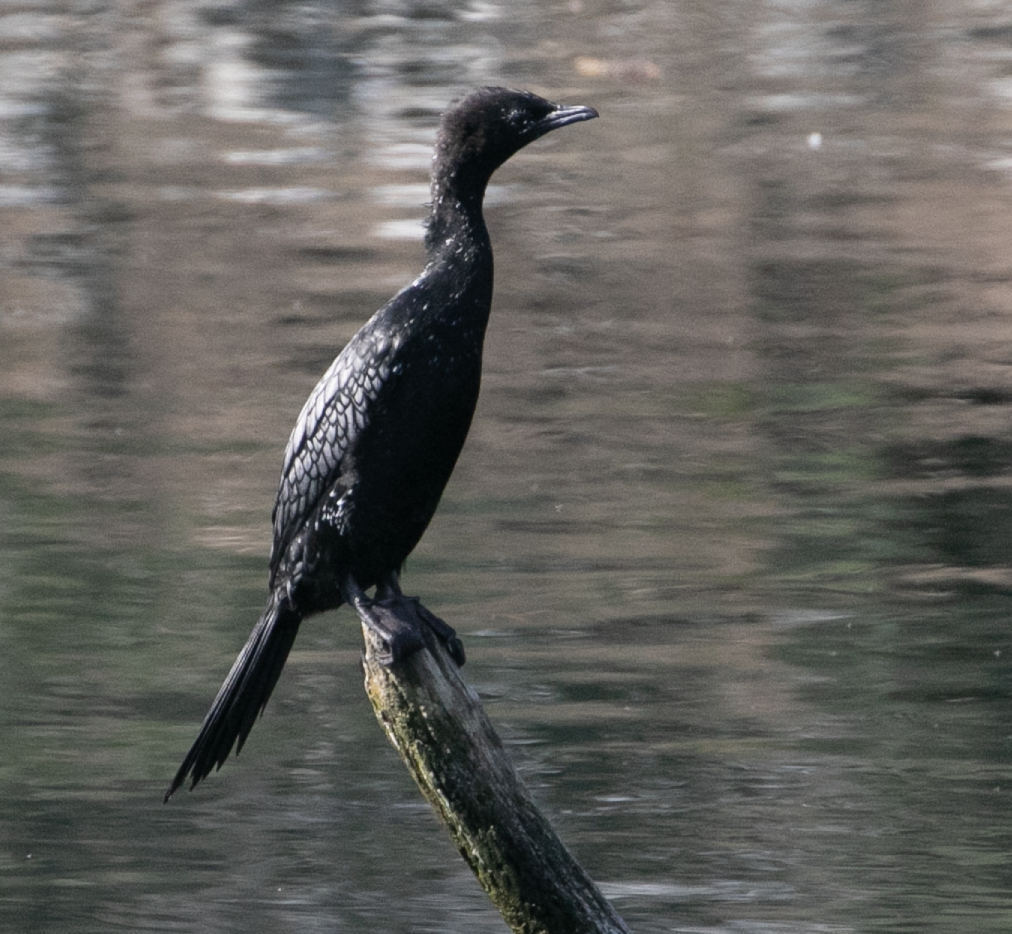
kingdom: Animalia
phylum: Chordata
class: Aves
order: Suliformes
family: Phalacrocoracidae
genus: Microcarbo
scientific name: Microcarbo pygmaeus
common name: Pygmy cormorant
